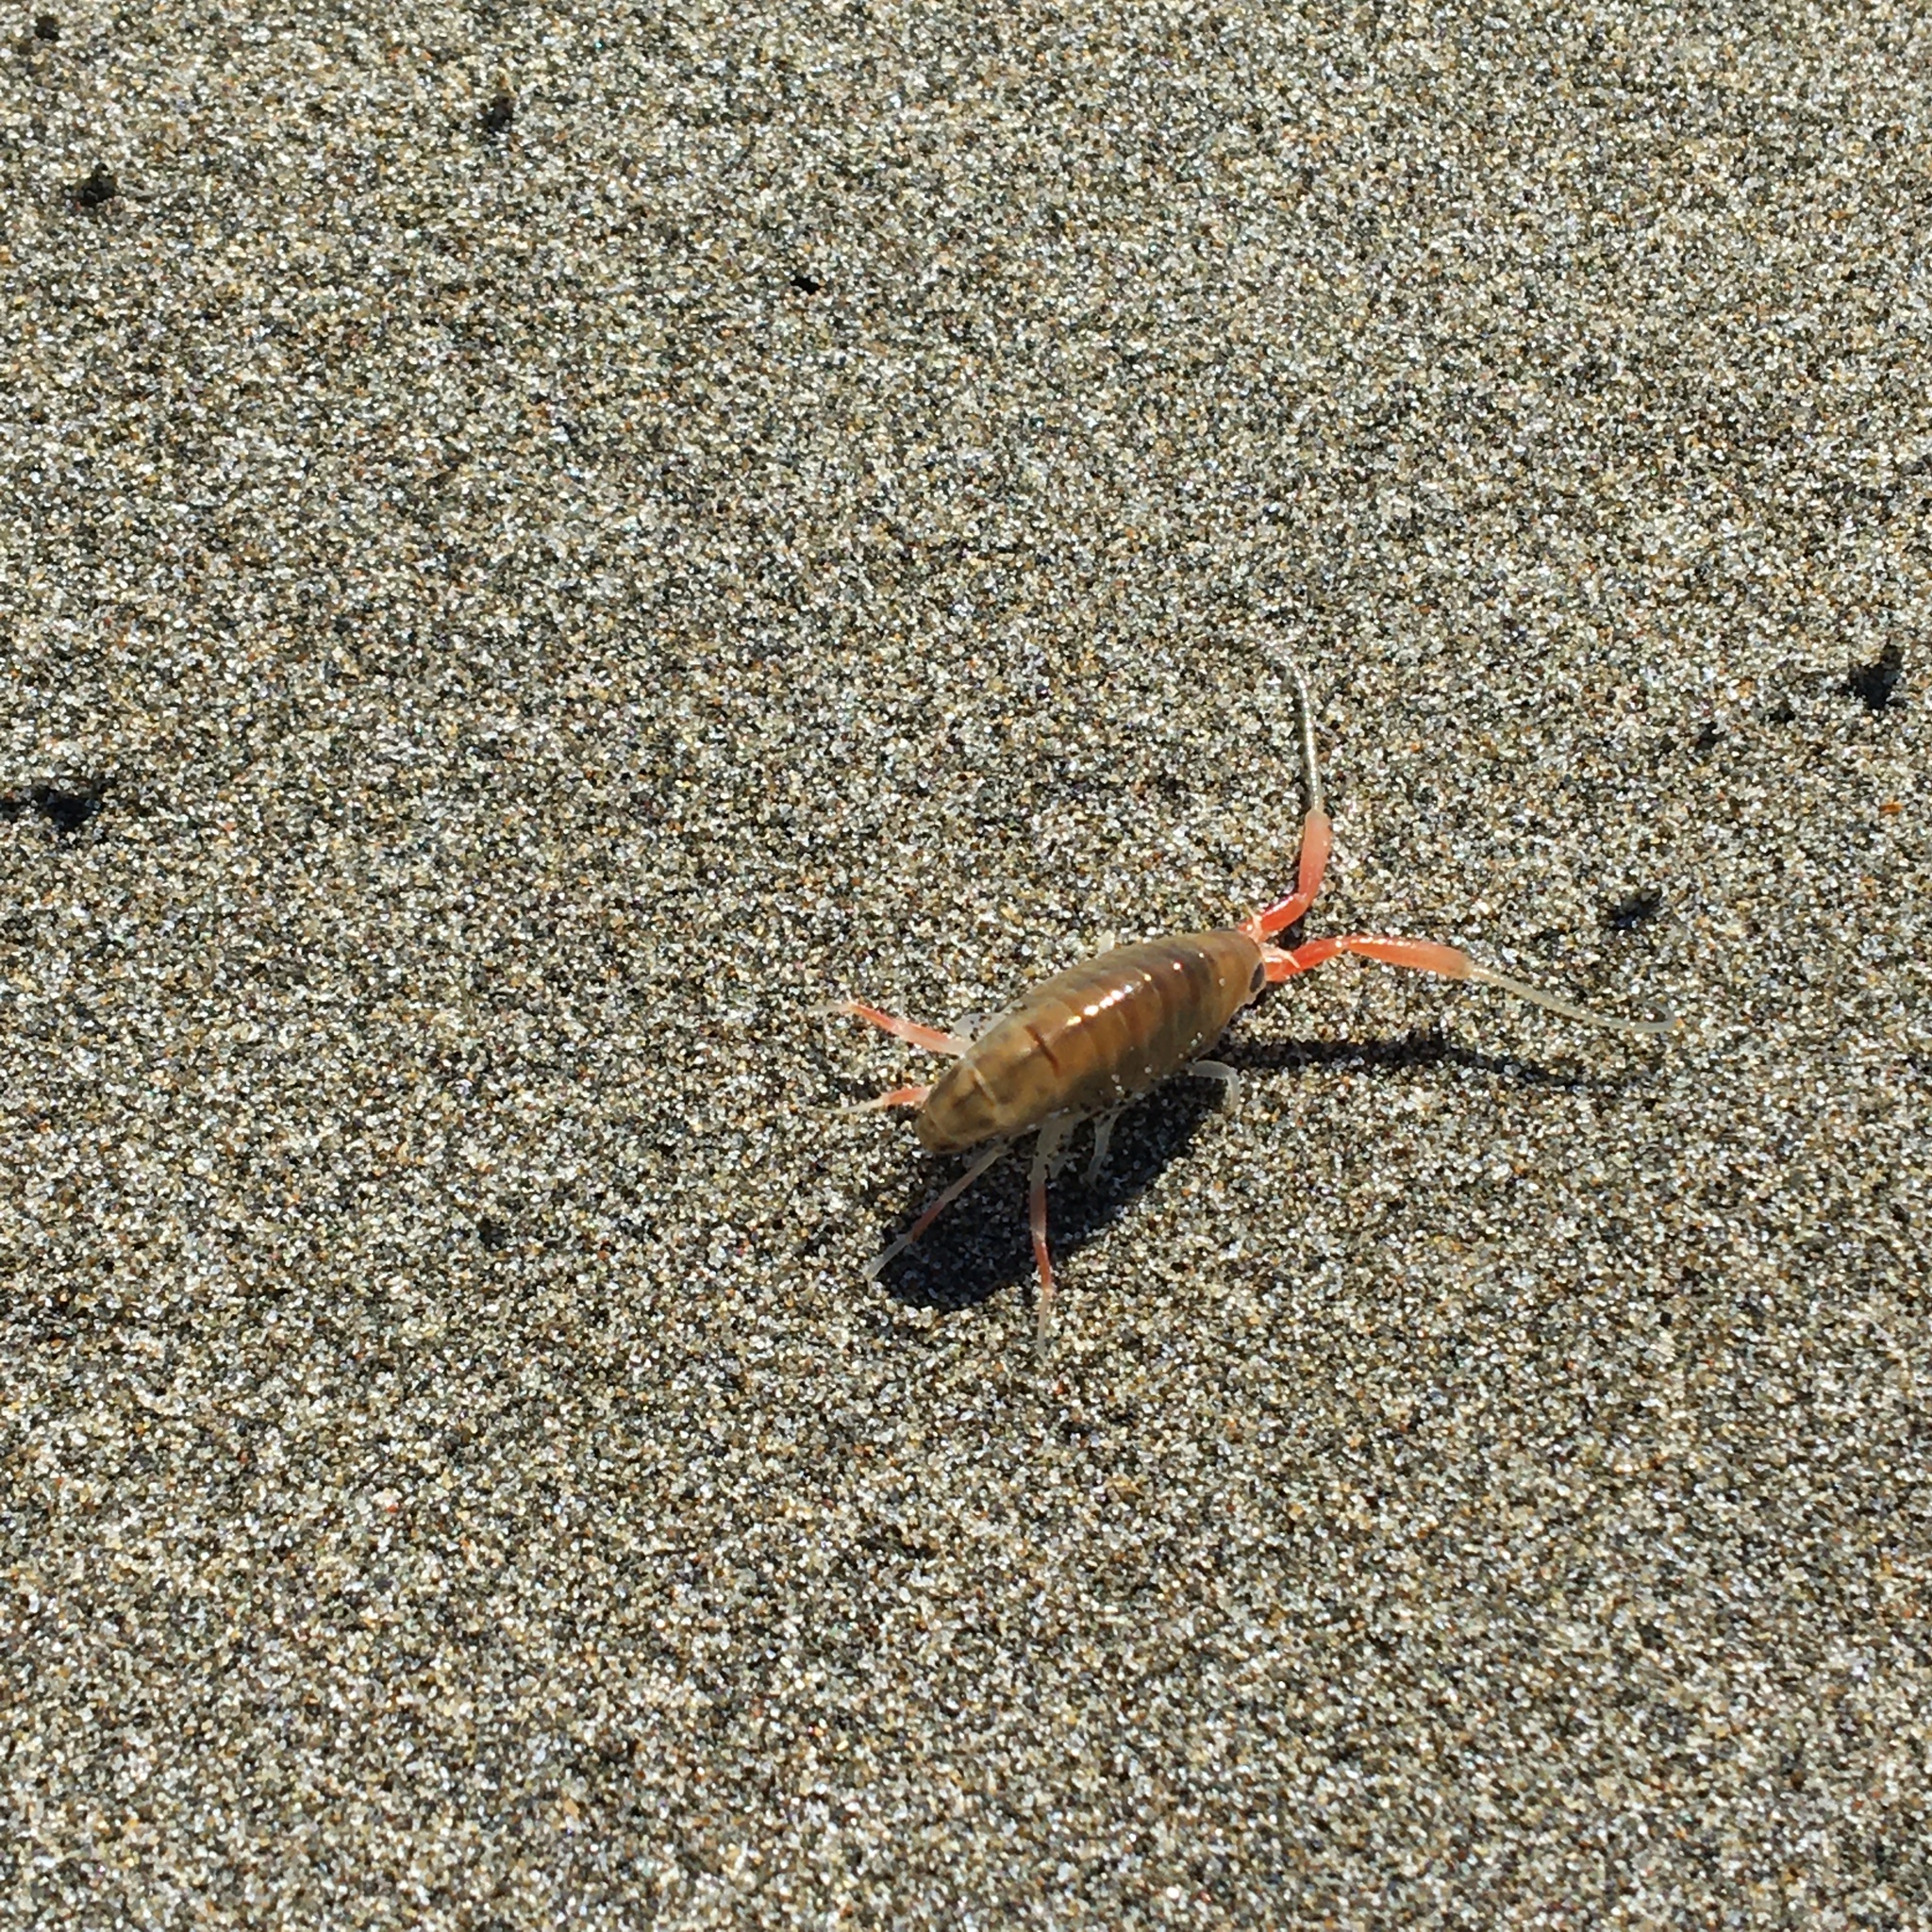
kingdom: Animalia
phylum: Arthropoda
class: Malacostraca
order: Amphipoda
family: Talitridae
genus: Megalorchestia
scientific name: Megalorchestia californiana
